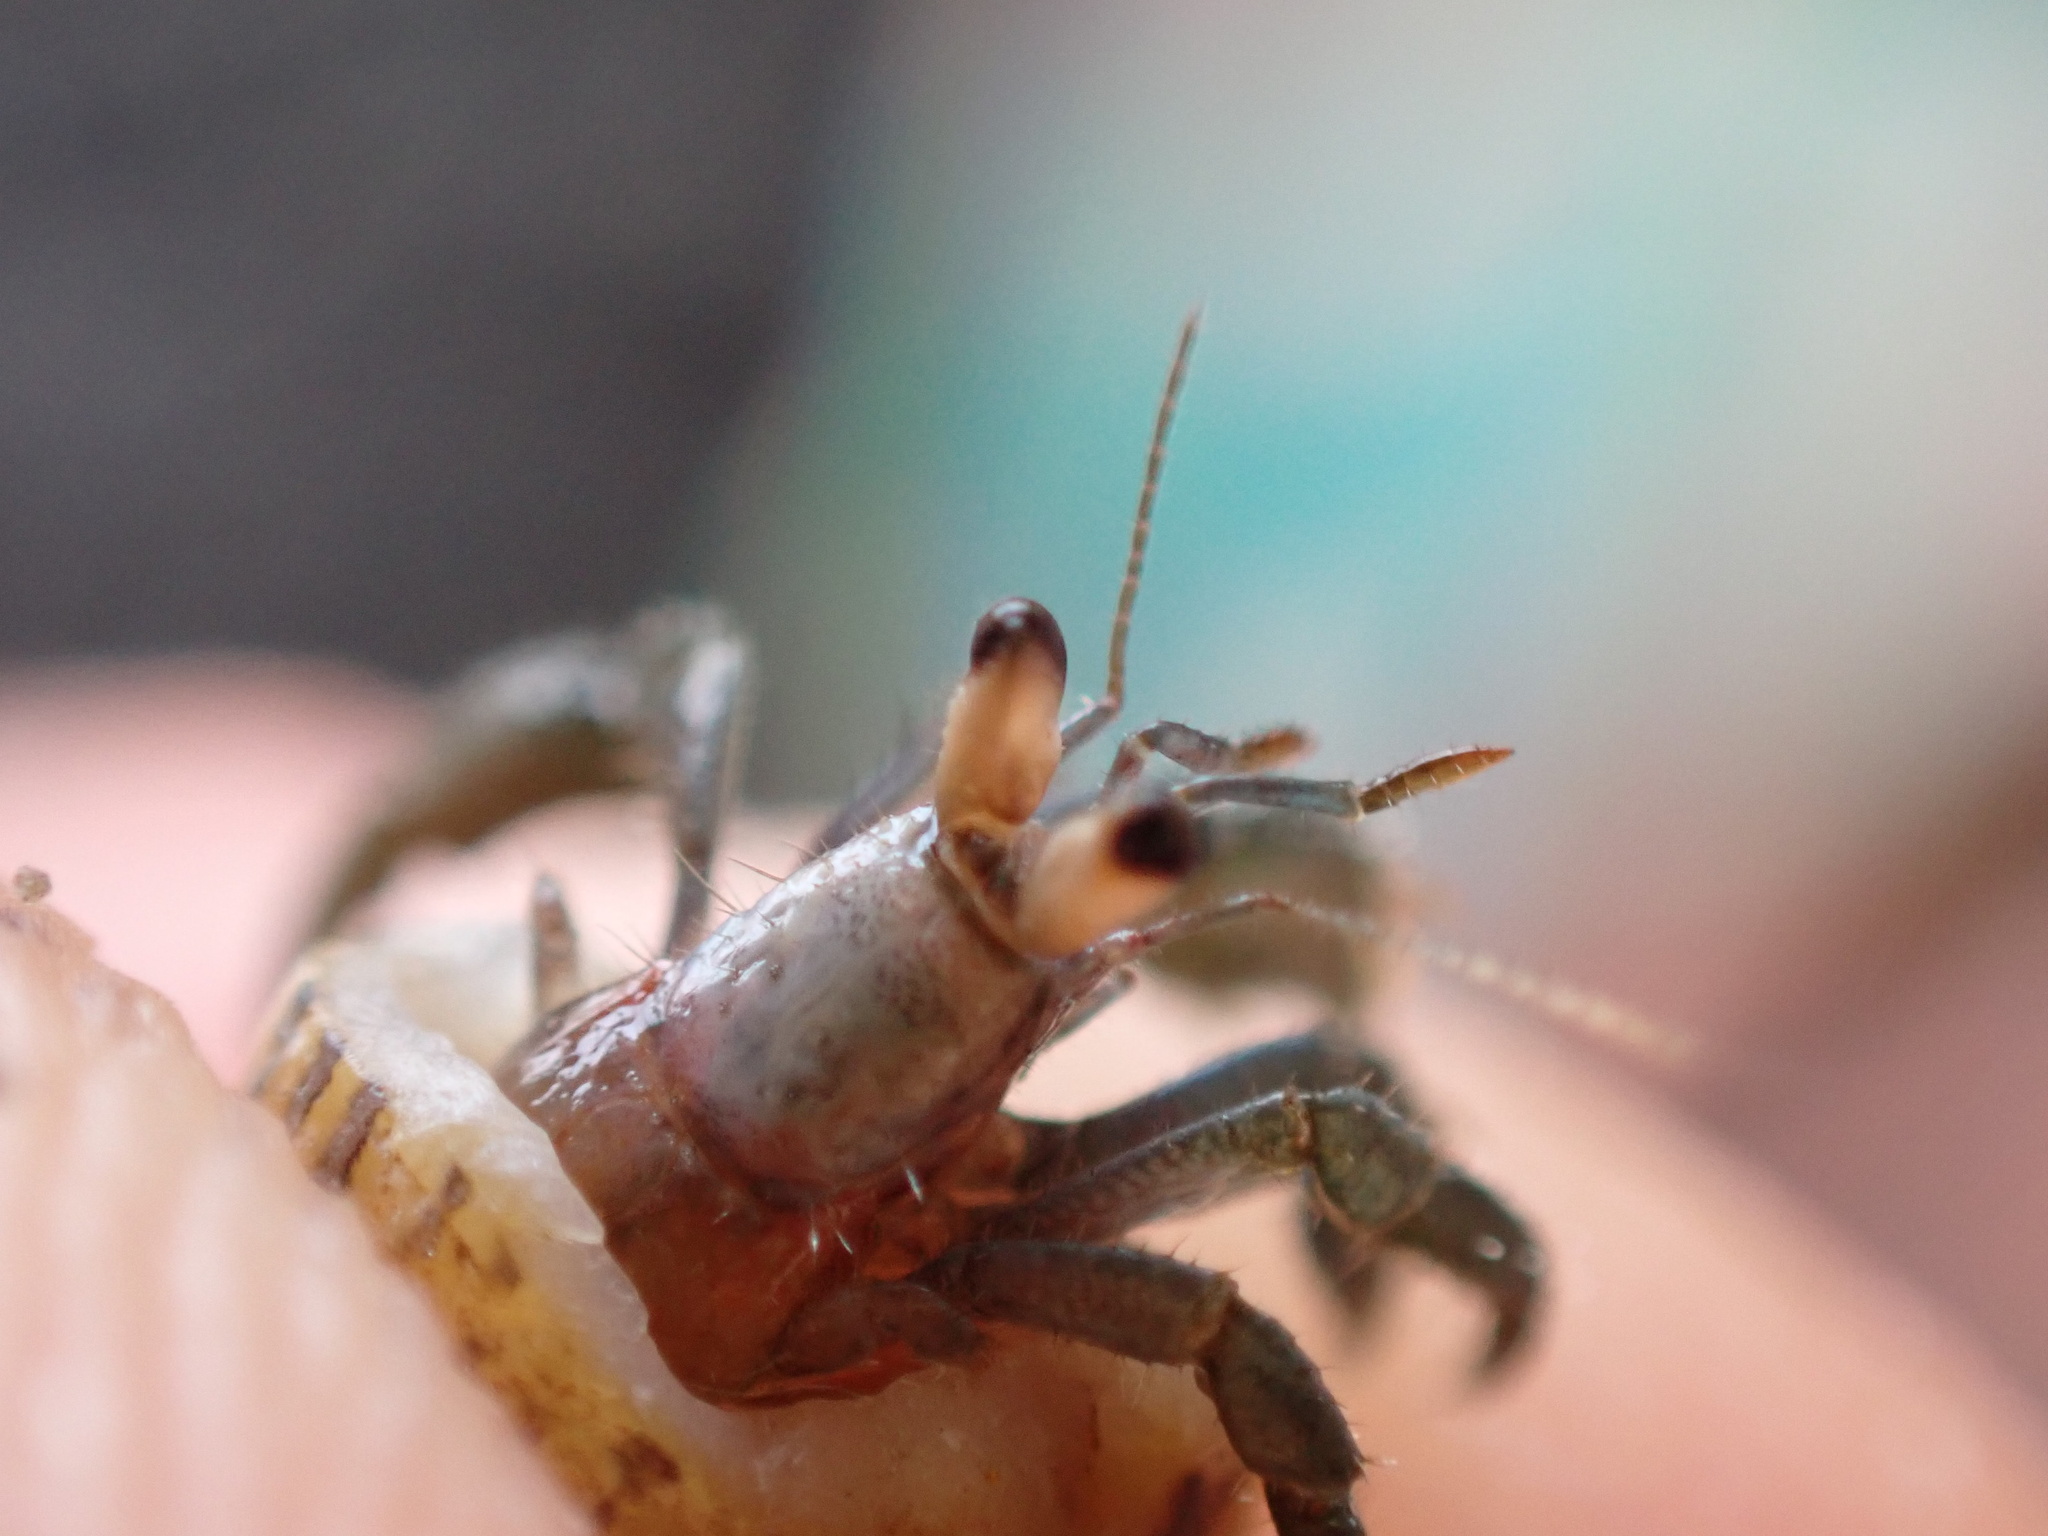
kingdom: Animalia
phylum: Arthropoda
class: Malacostraca
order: Decapoda
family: Coenobitidae
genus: Coenobita
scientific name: Coenobita compressus
